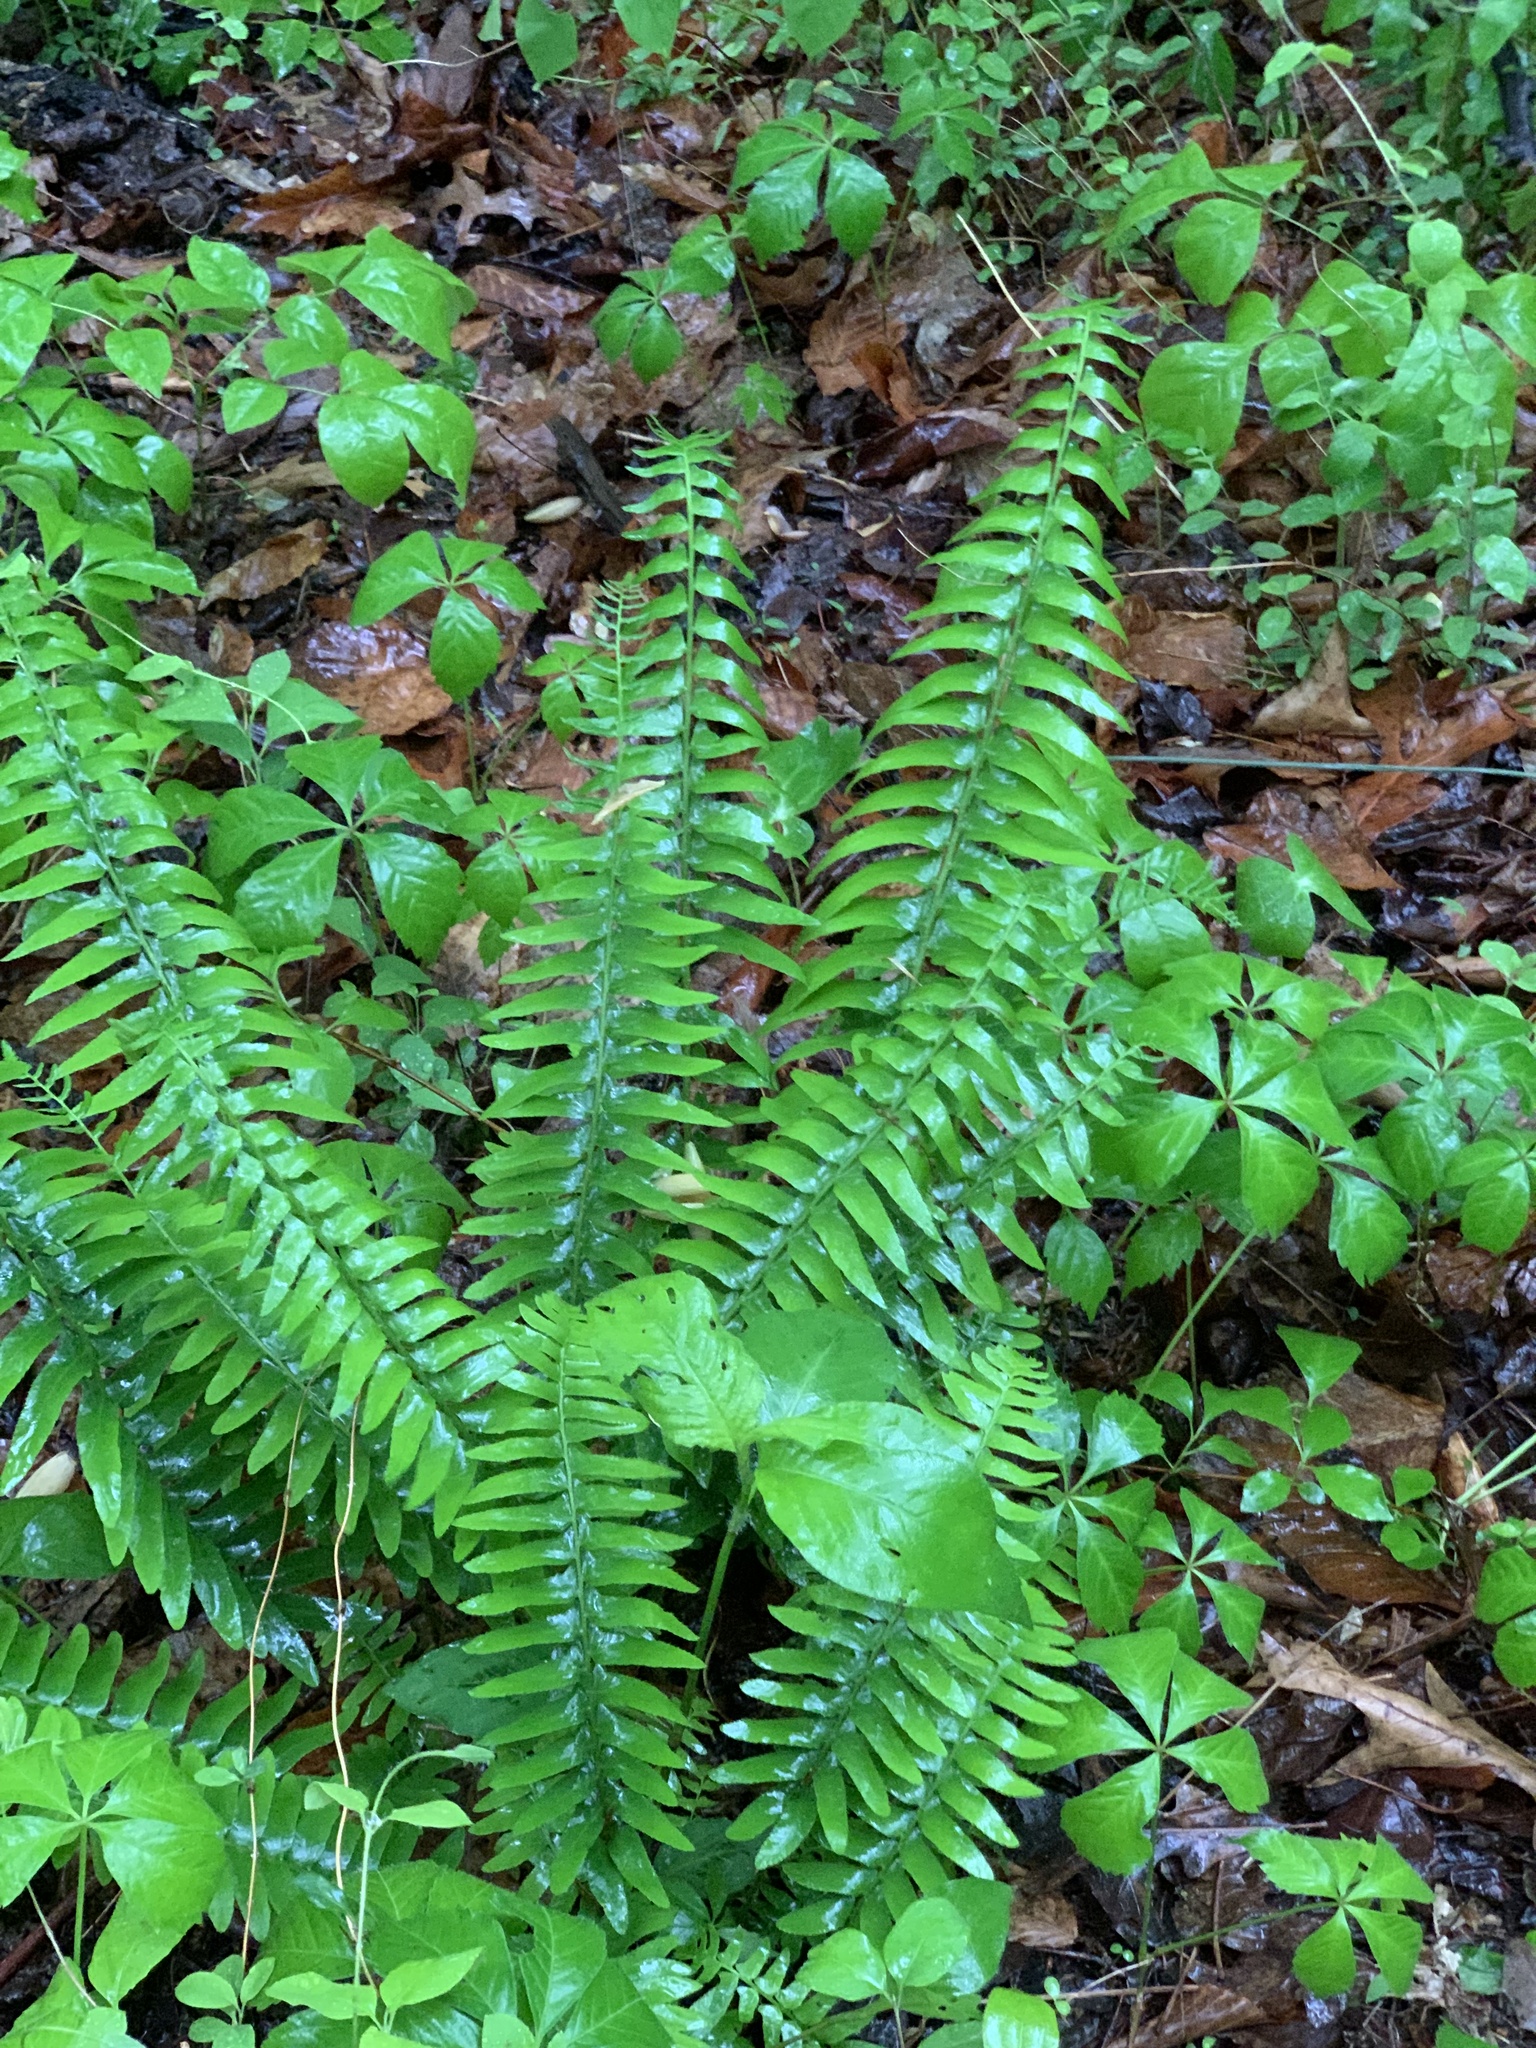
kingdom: Plantae
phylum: Tracheophyta
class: Polypodiopsida
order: Polypodiales
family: Dryopteridaceae
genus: Polystichum
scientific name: Polystichum acrostichoides
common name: Christmas fern
